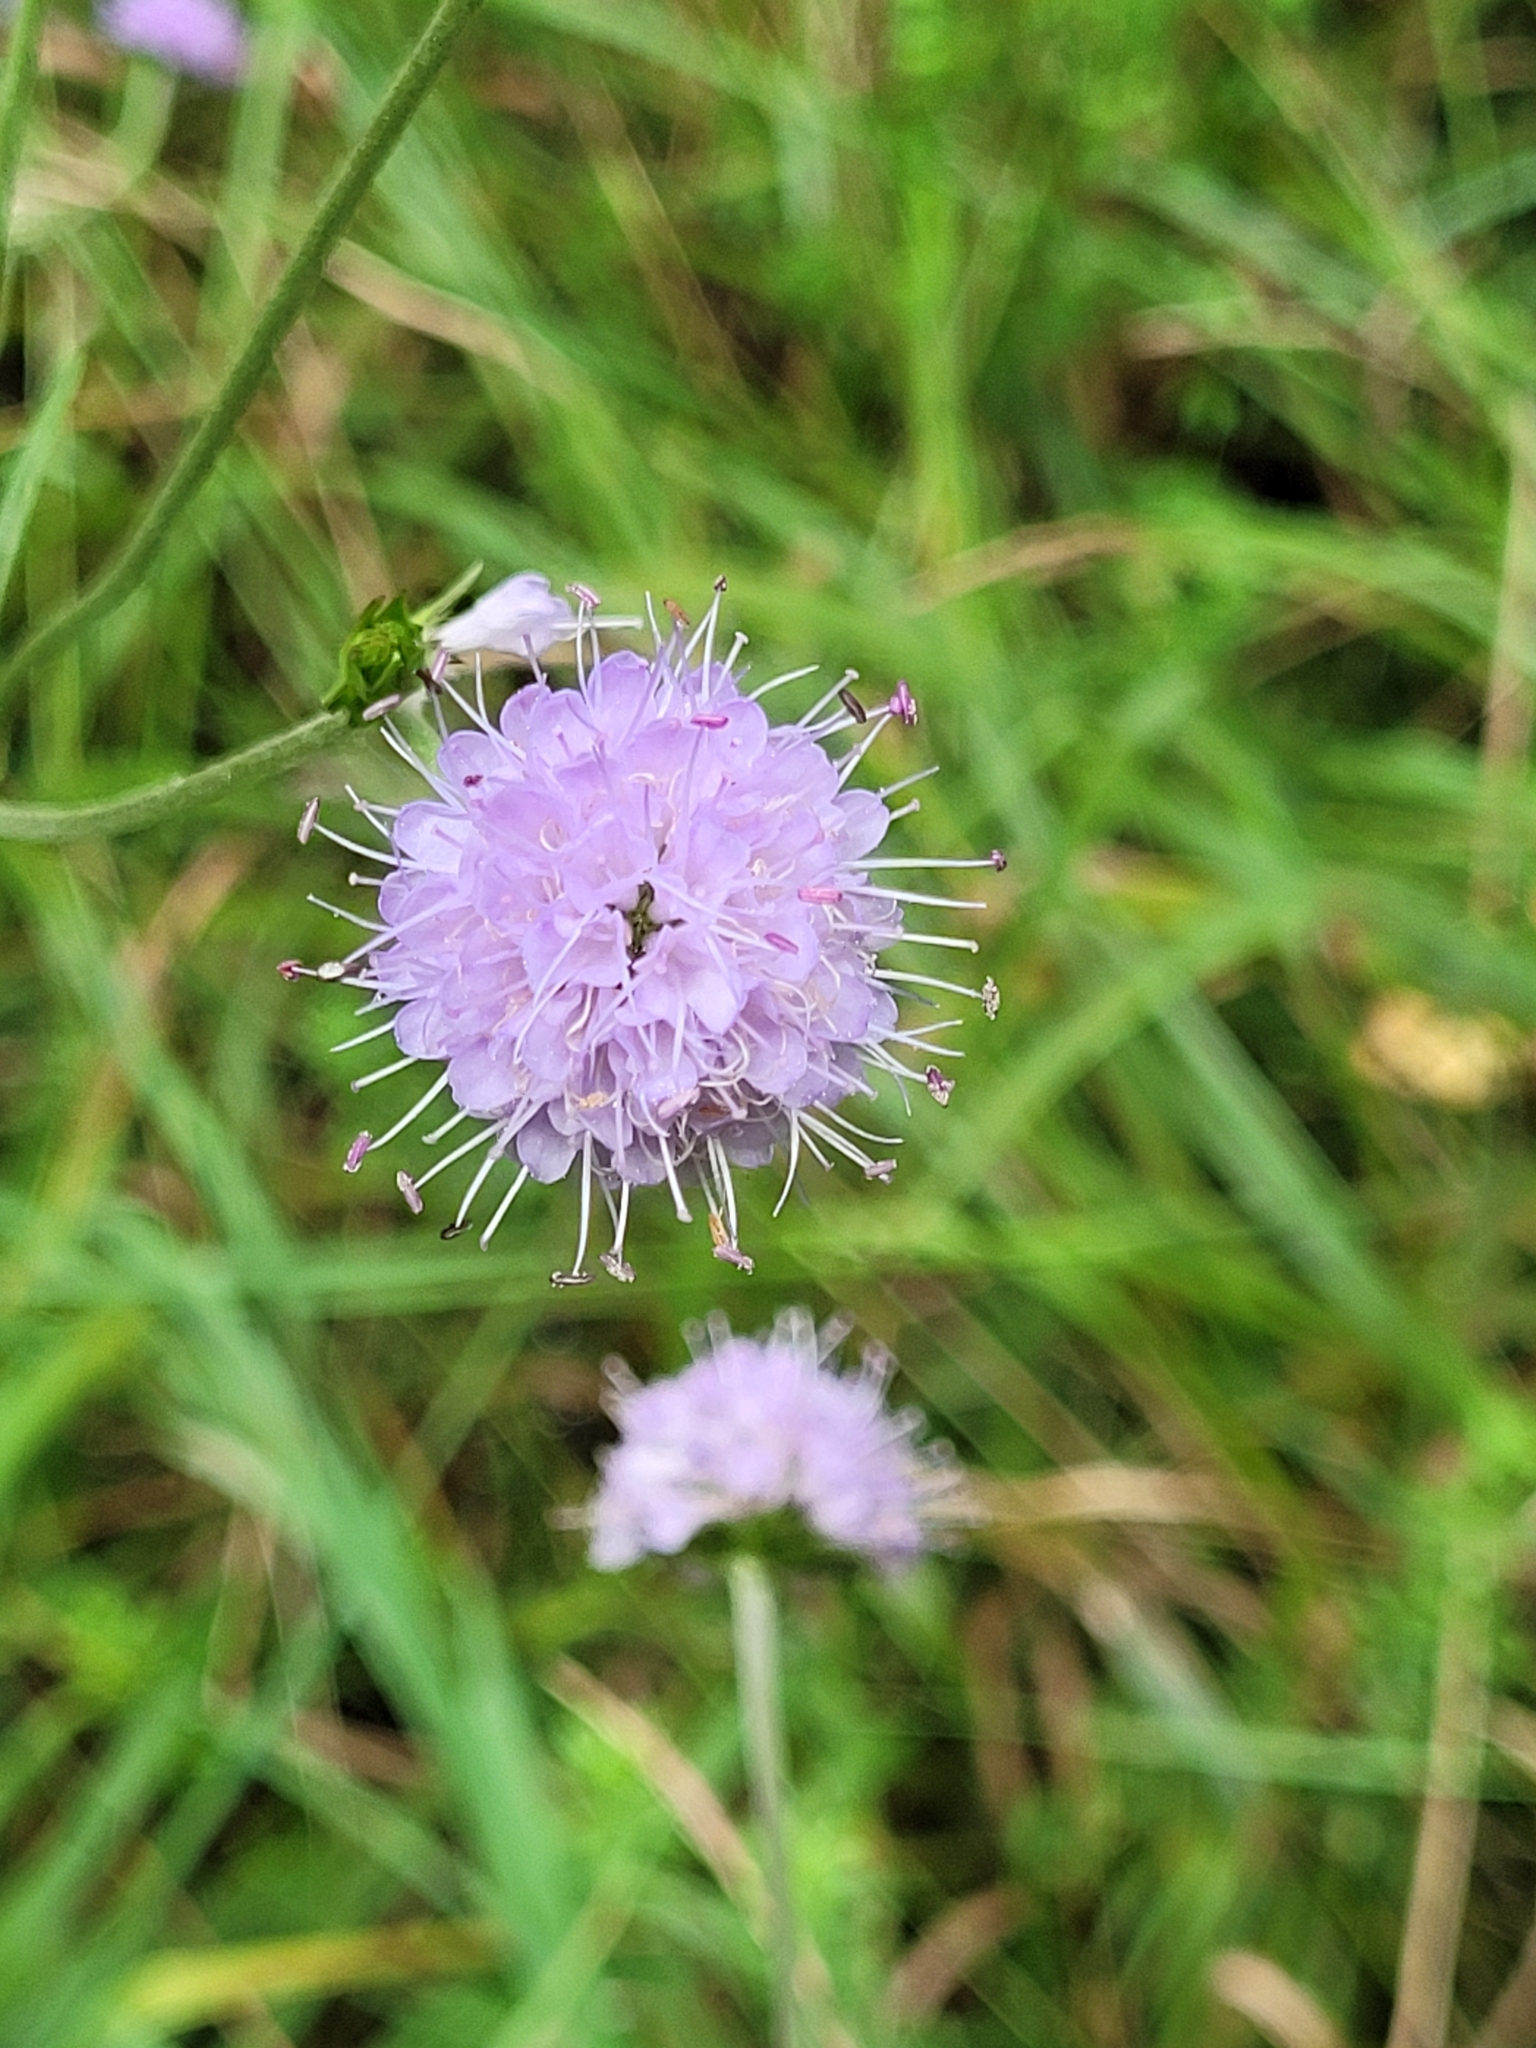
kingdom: Plantae
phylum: Tracheophyta
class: Magnoliopsida
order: Dipsacales
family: Caprifoliaceae
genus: Succisa
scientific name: Succisa pratensis
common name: Devil's-bit
